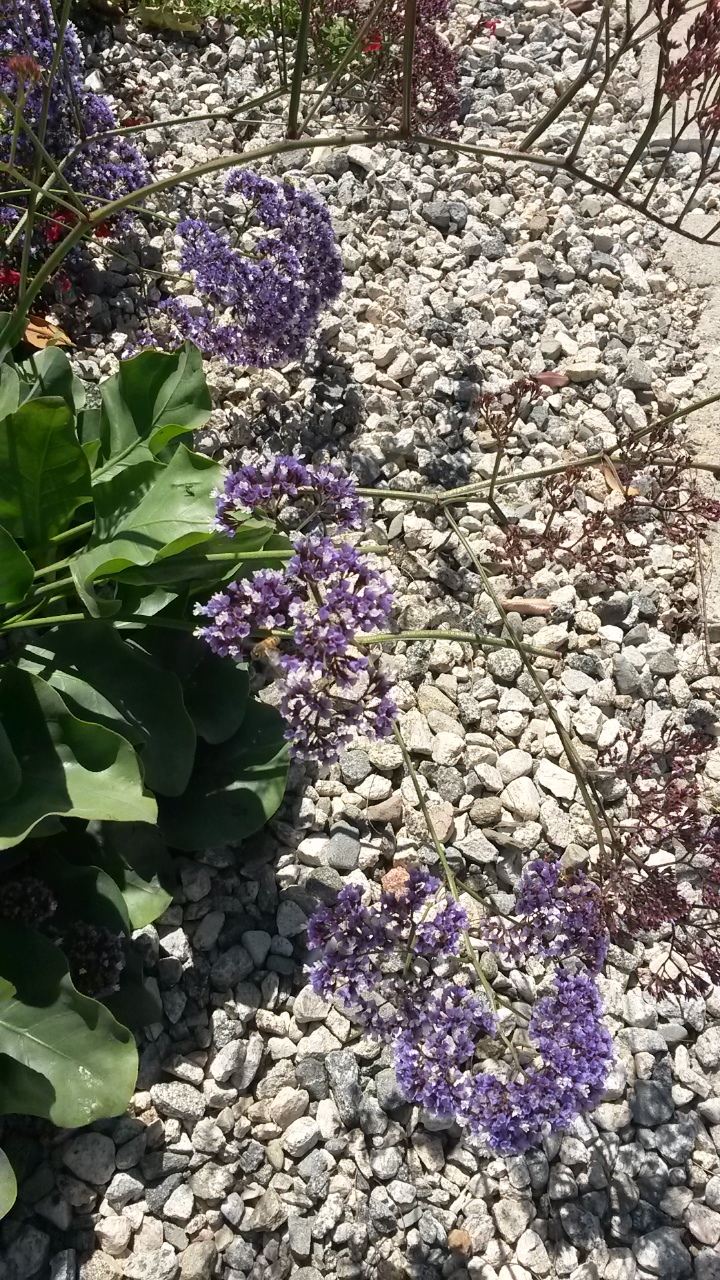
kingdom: Animalia
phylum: Arthropoda
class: Insecta
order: Hymenoptera
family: Apidae
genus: Apis
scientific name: Apis mellifera
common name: Honey bee
